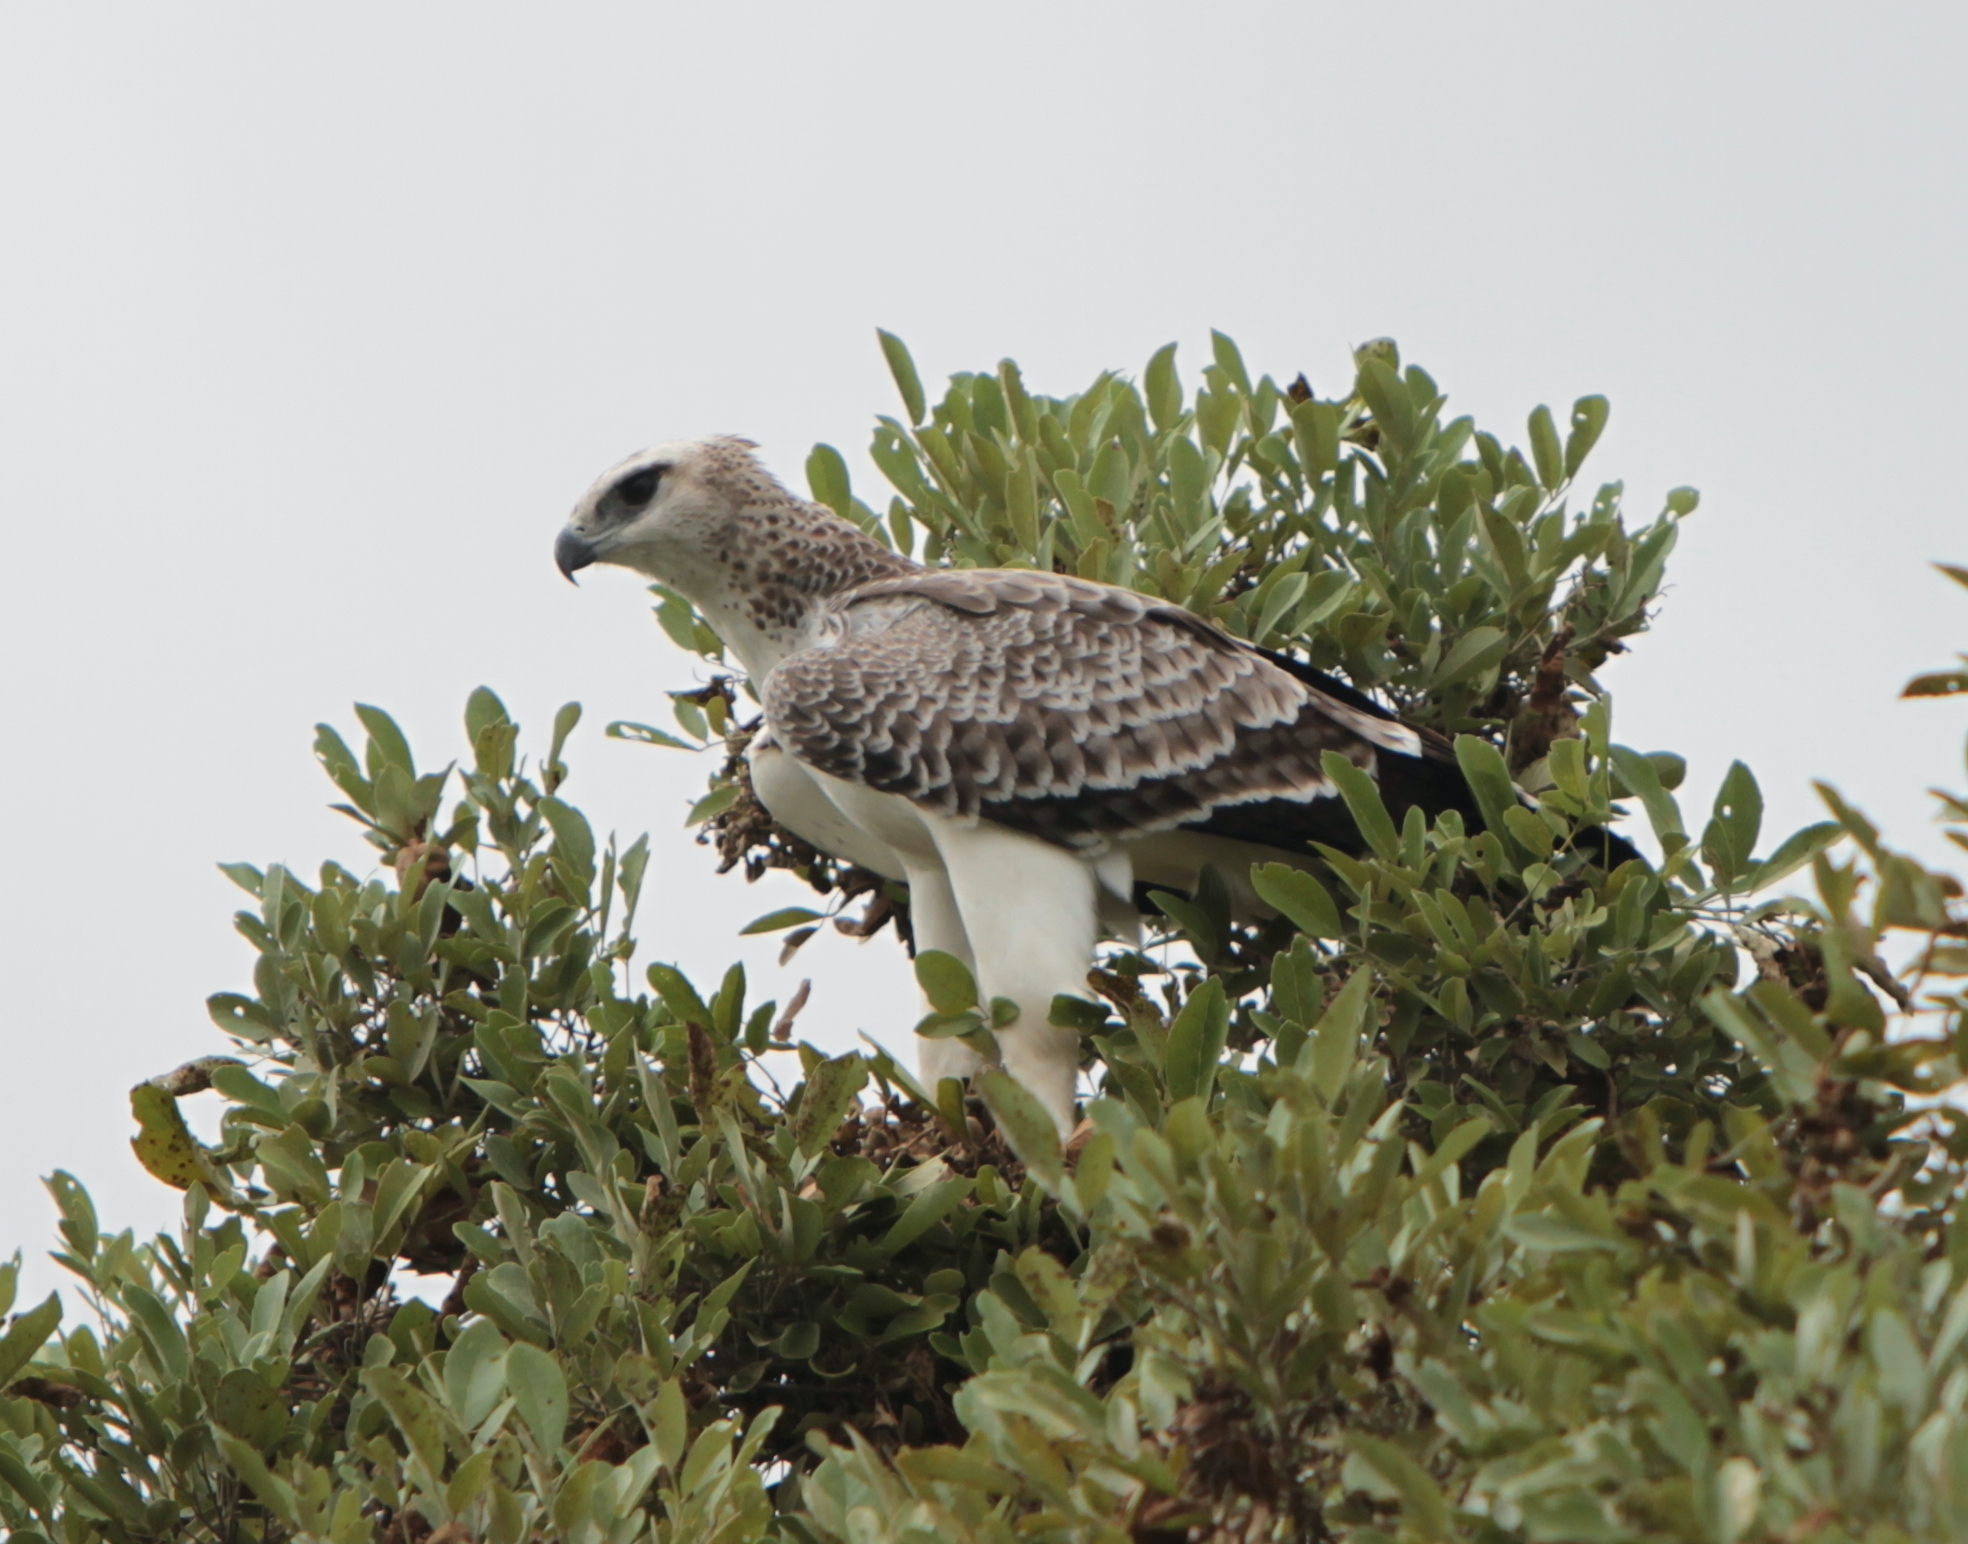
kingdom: Animalia
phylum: Chordata
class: Aves
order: Accipitriformes
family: Accipitridae
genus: Polemaetus
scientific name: Polemaetus bellicosus
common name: Martial eagle
